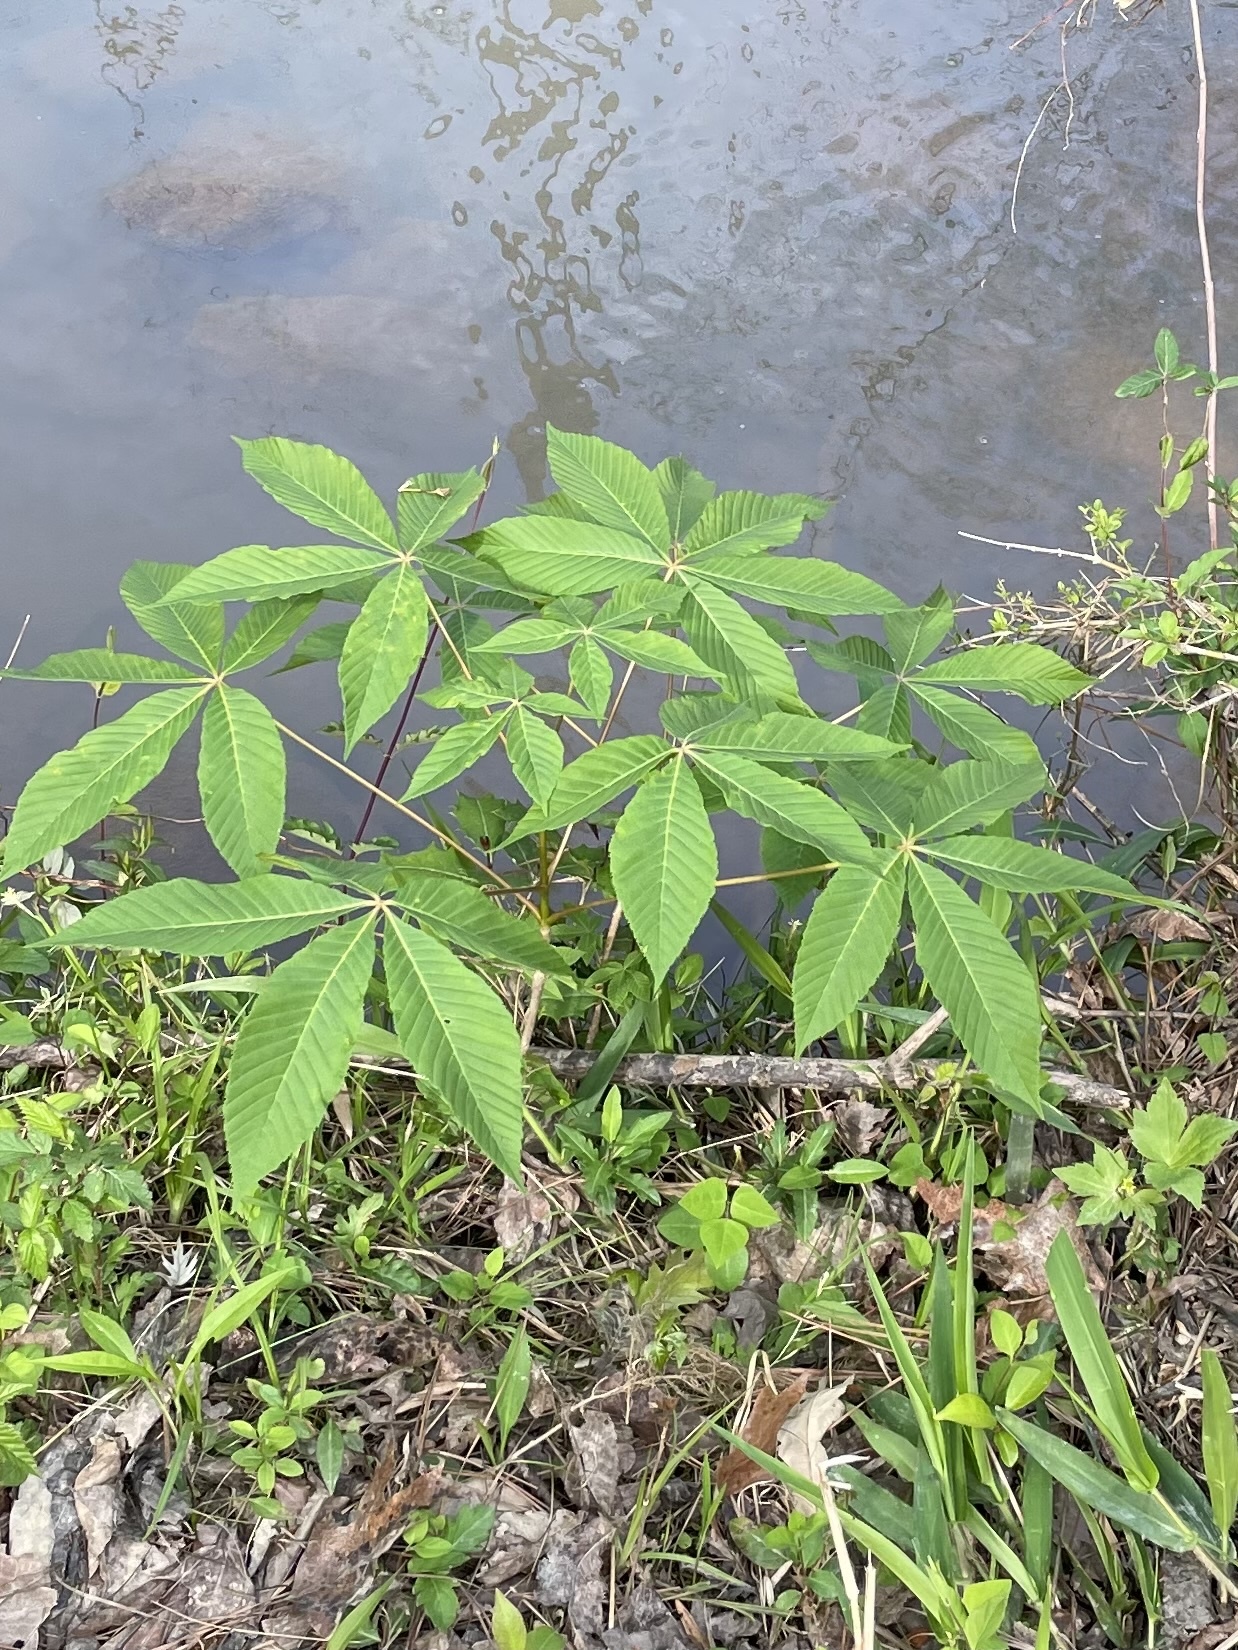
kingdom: Plantae
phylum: Tracheophyta
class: Magnoliopsida
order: Sapindales
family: Sapindaceae
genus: Aesculus
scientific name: Aesculus sylvatica
